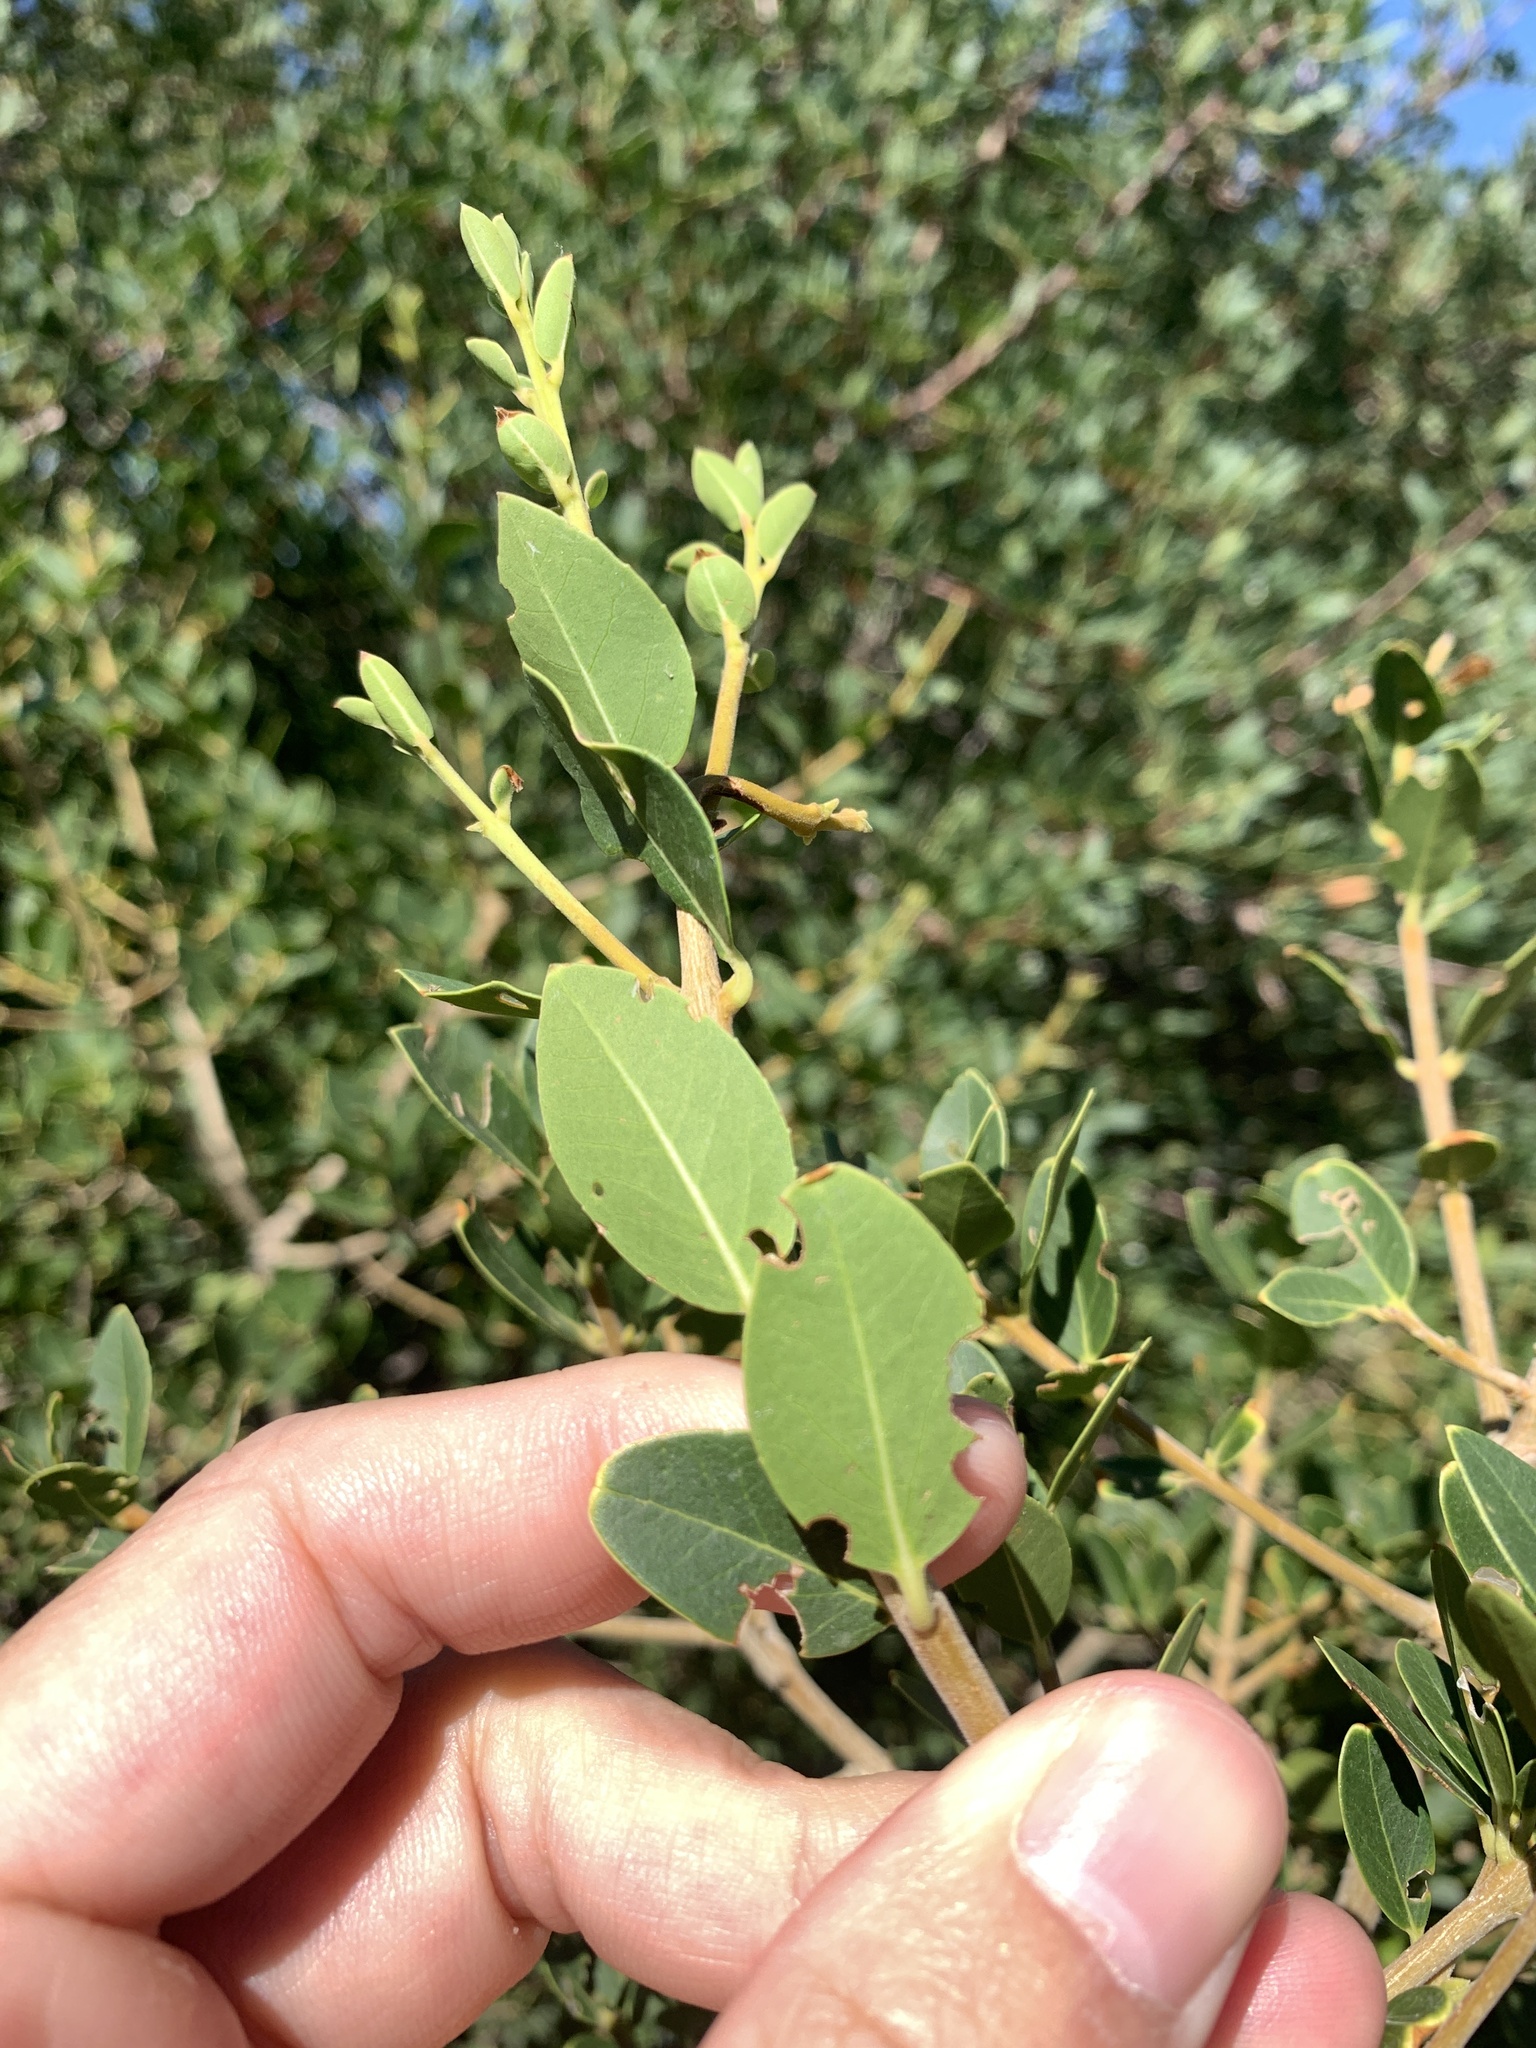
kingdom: Plantae
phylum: Tracheophyta
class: Magnoliopsida
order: Lamiales
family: Oleaceae
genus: Phillyrea
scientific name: Phillyrea latifolia
